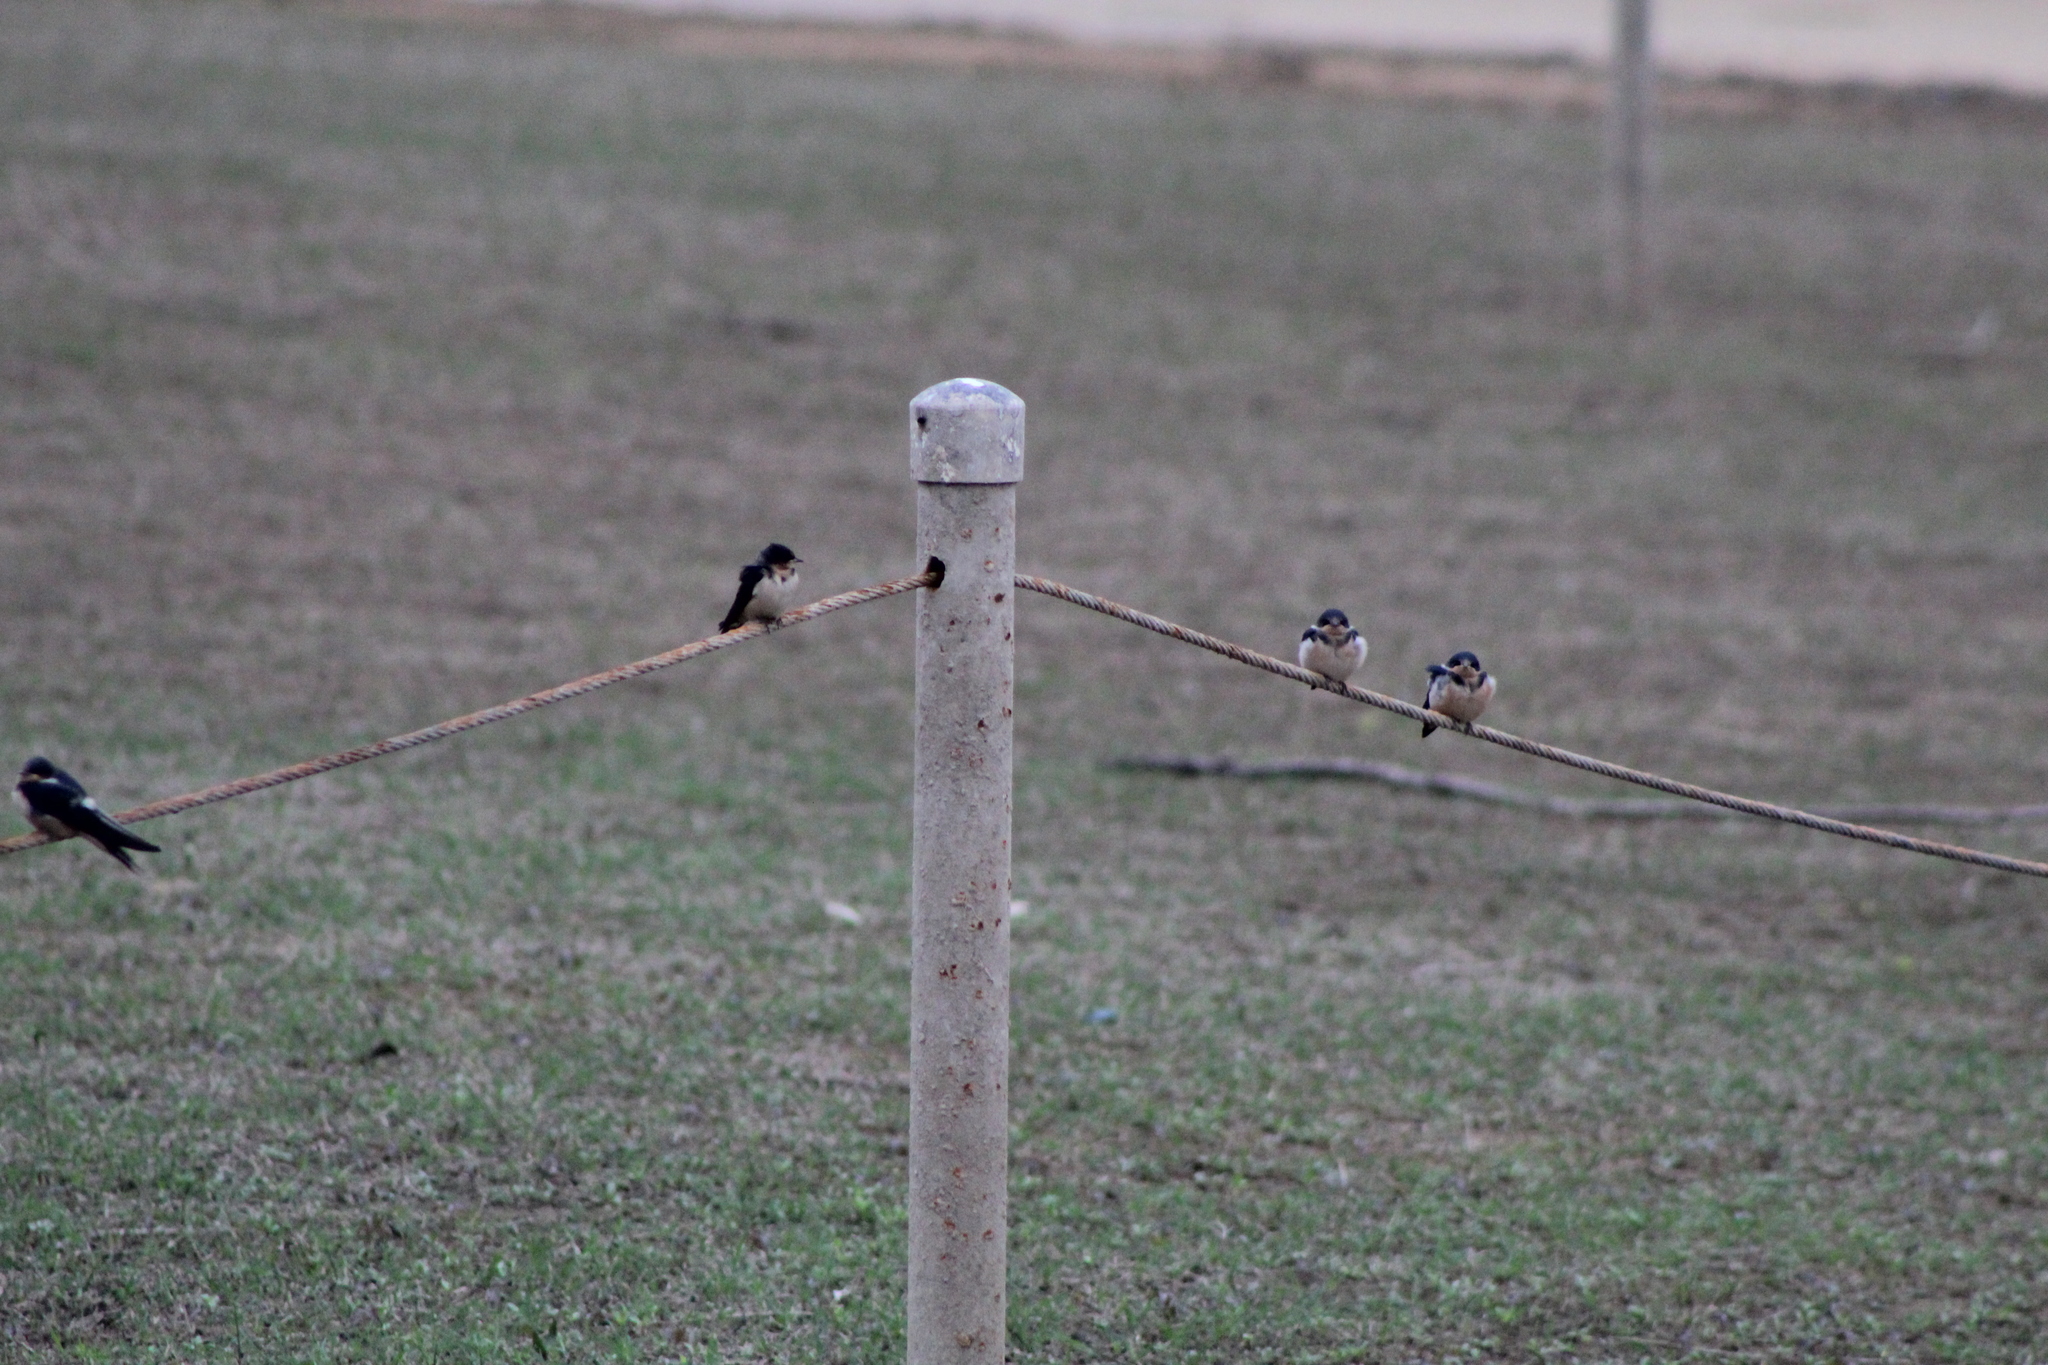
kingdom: Animalia
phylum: Chordata
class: Aves
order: Passeriformes
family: Hirundinidae
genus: Hirundo
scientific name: Hirundo rustica
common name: Barn swallow
